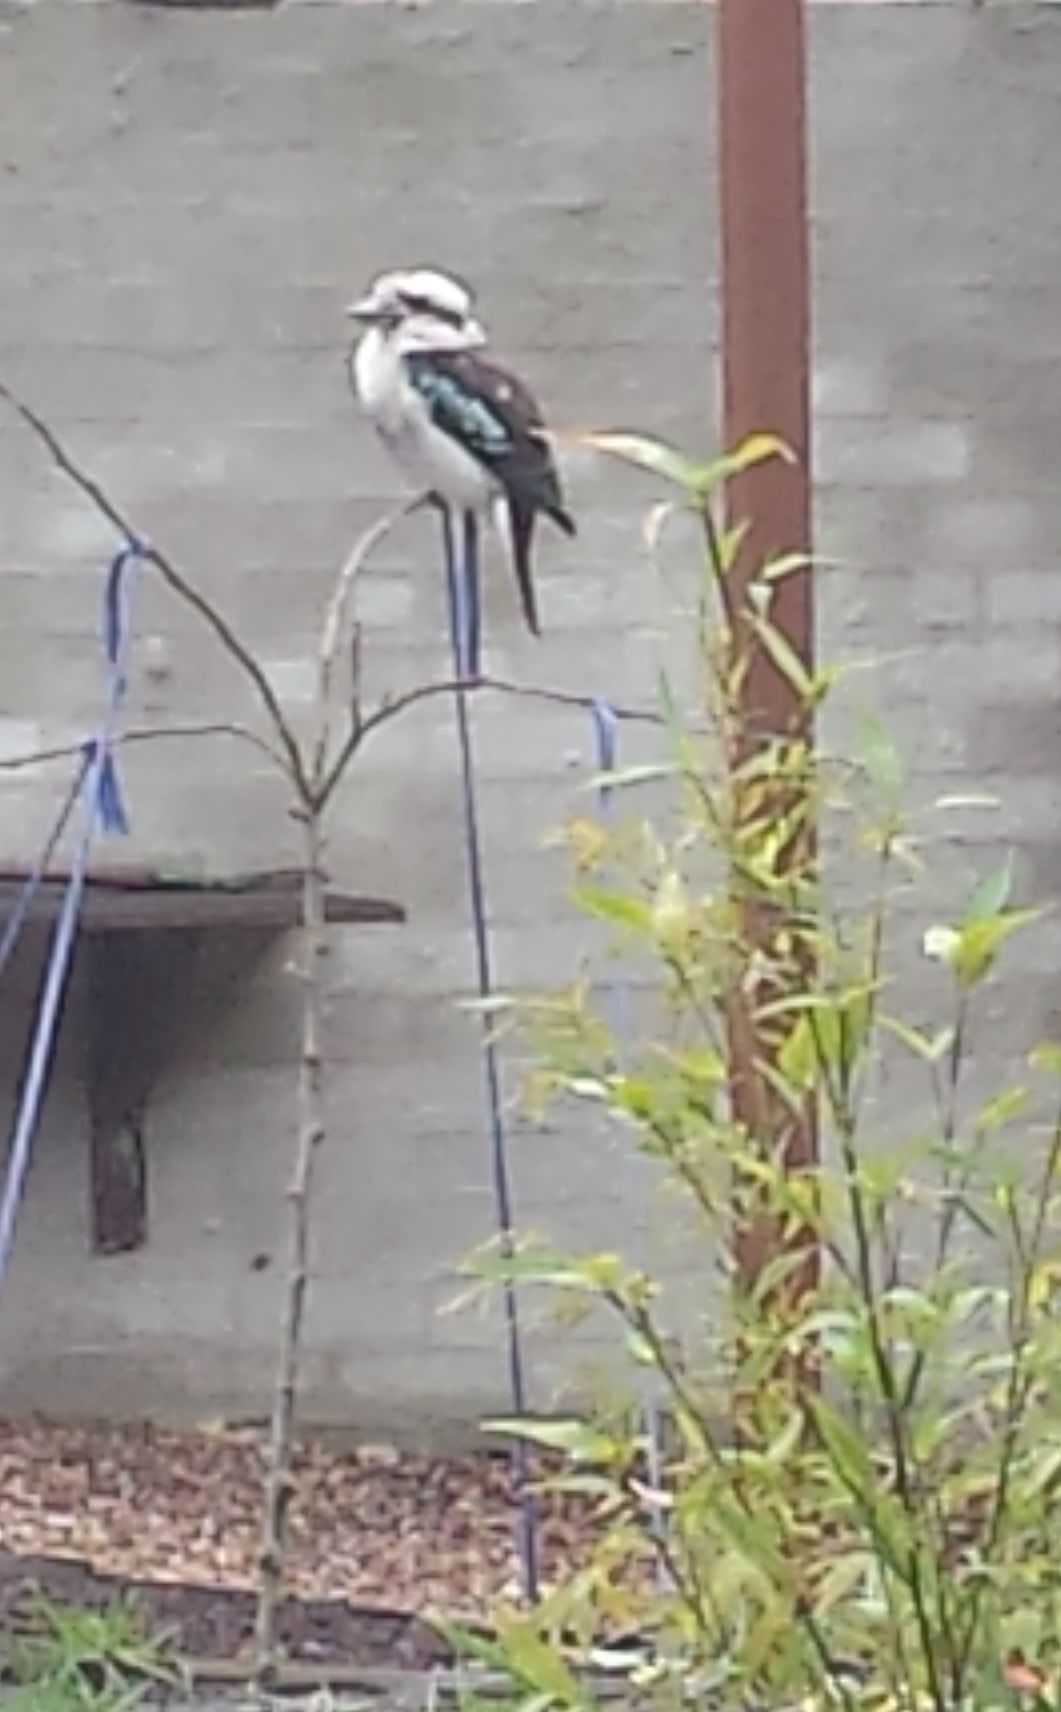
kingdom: Animalia
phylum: Chordata
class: Aves
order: Coraciiformes
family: Alcedinidae
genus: Dacelo
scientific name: Dacelo novaeguineae
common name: Laughing kookaburra
